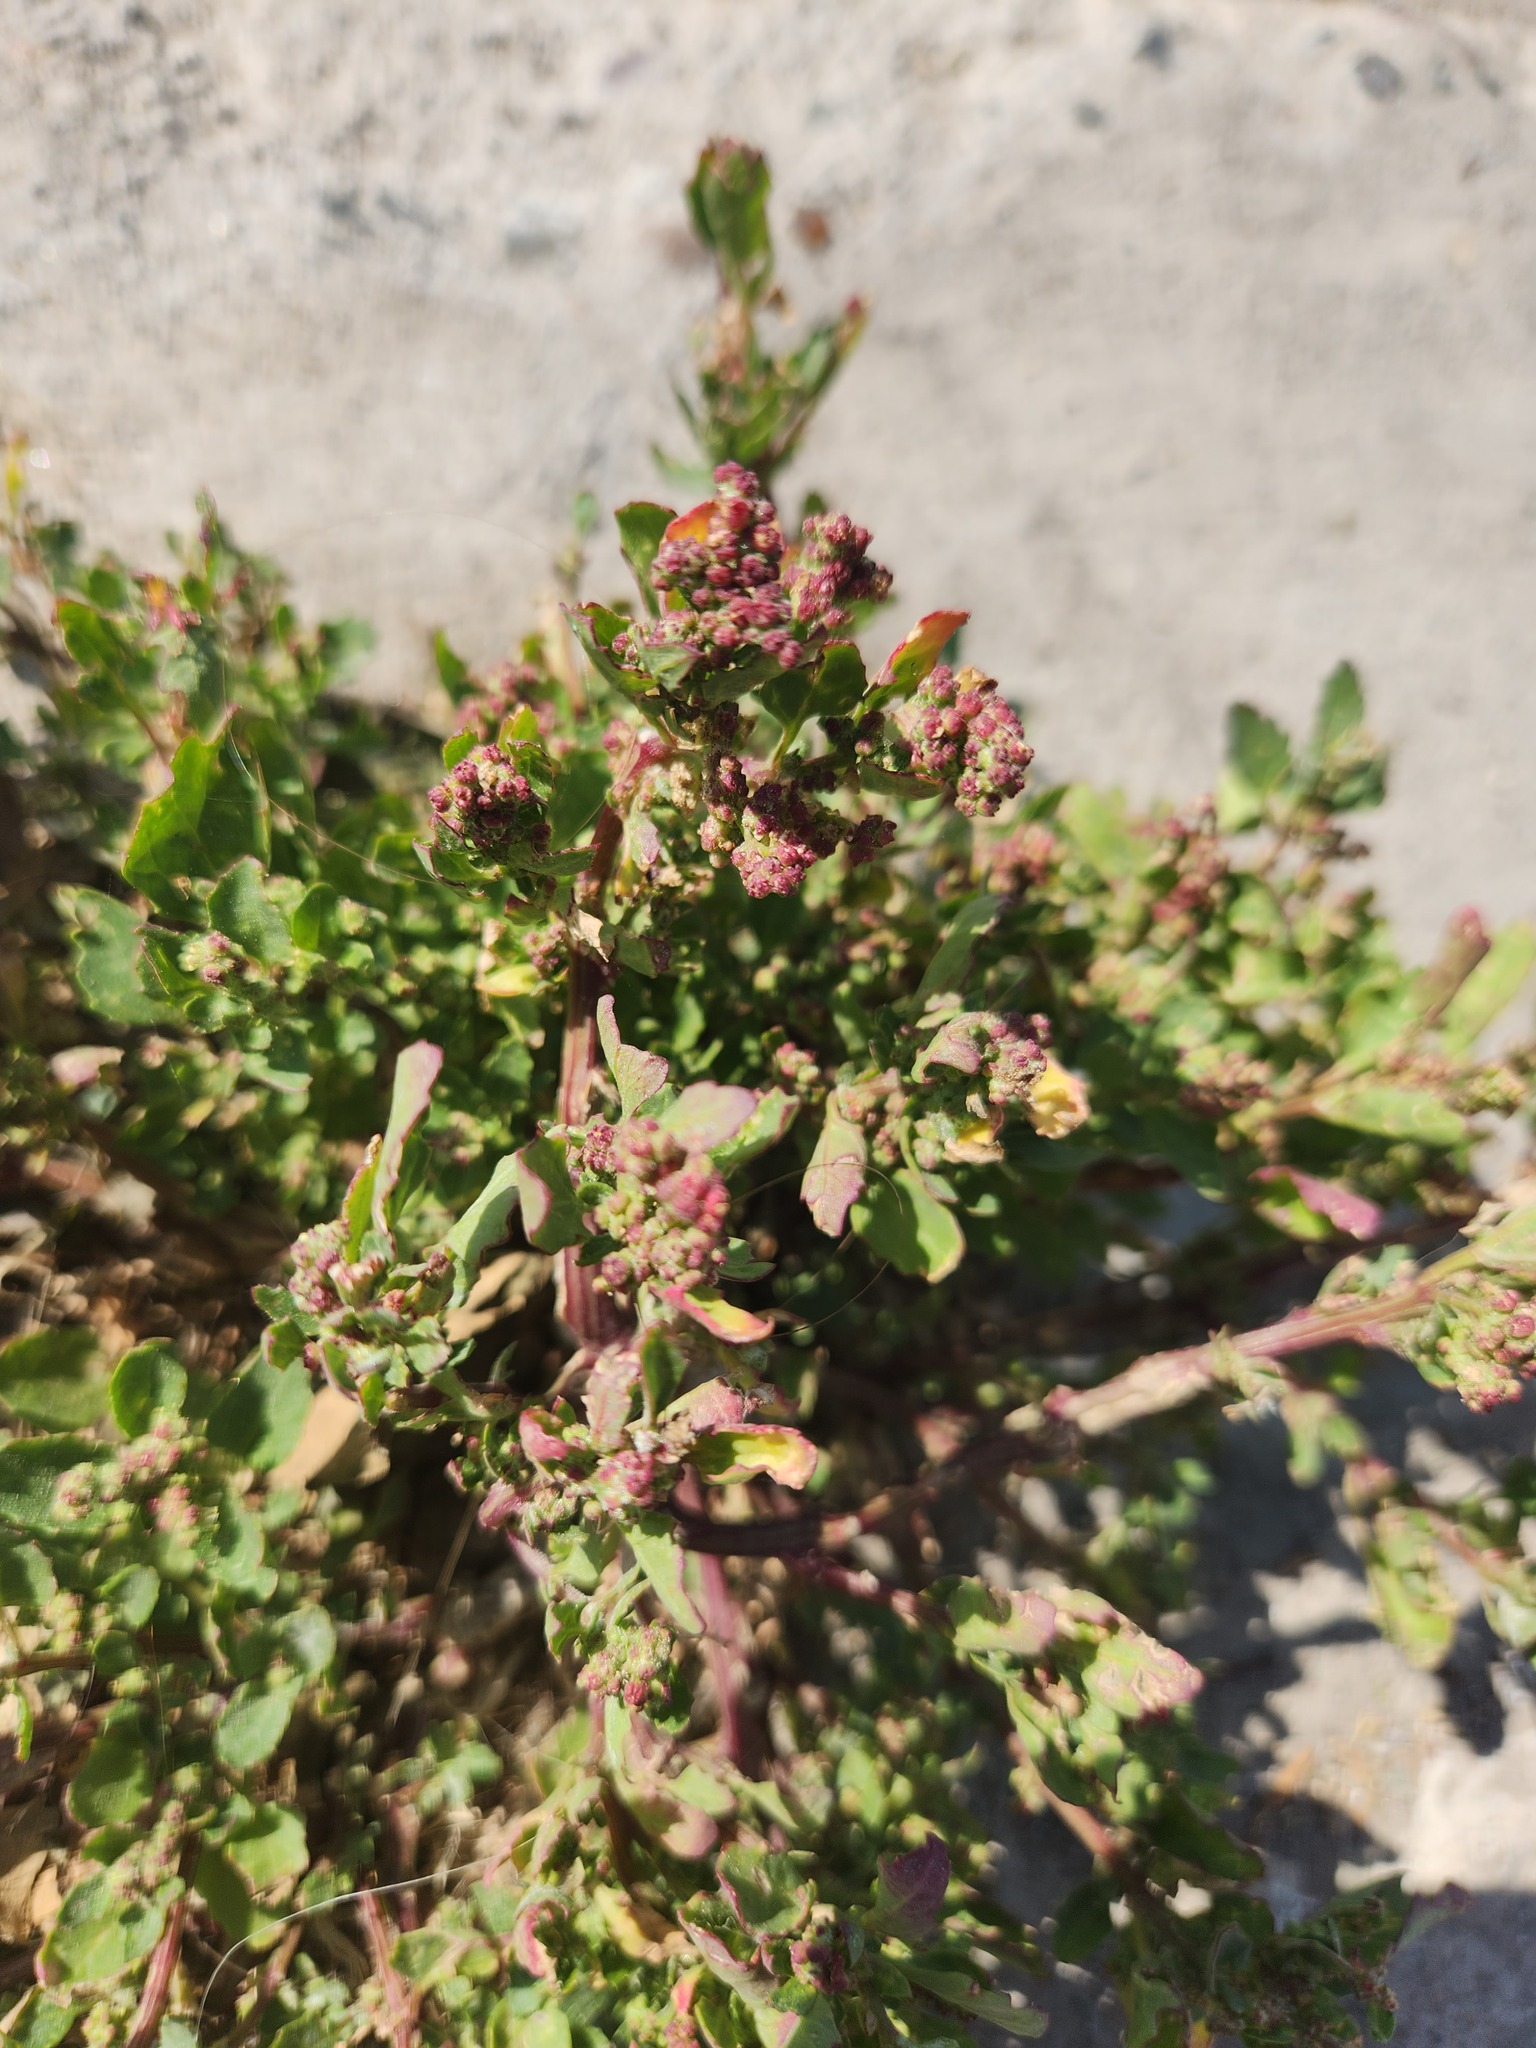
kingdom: Plantae
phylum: Tracheophyta
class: Magnoliopsida
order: Caryophyllales
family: Amaranthaceae
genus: Chenopodiastrum
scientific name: Chenopodiastrum murale
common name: Sowbane
